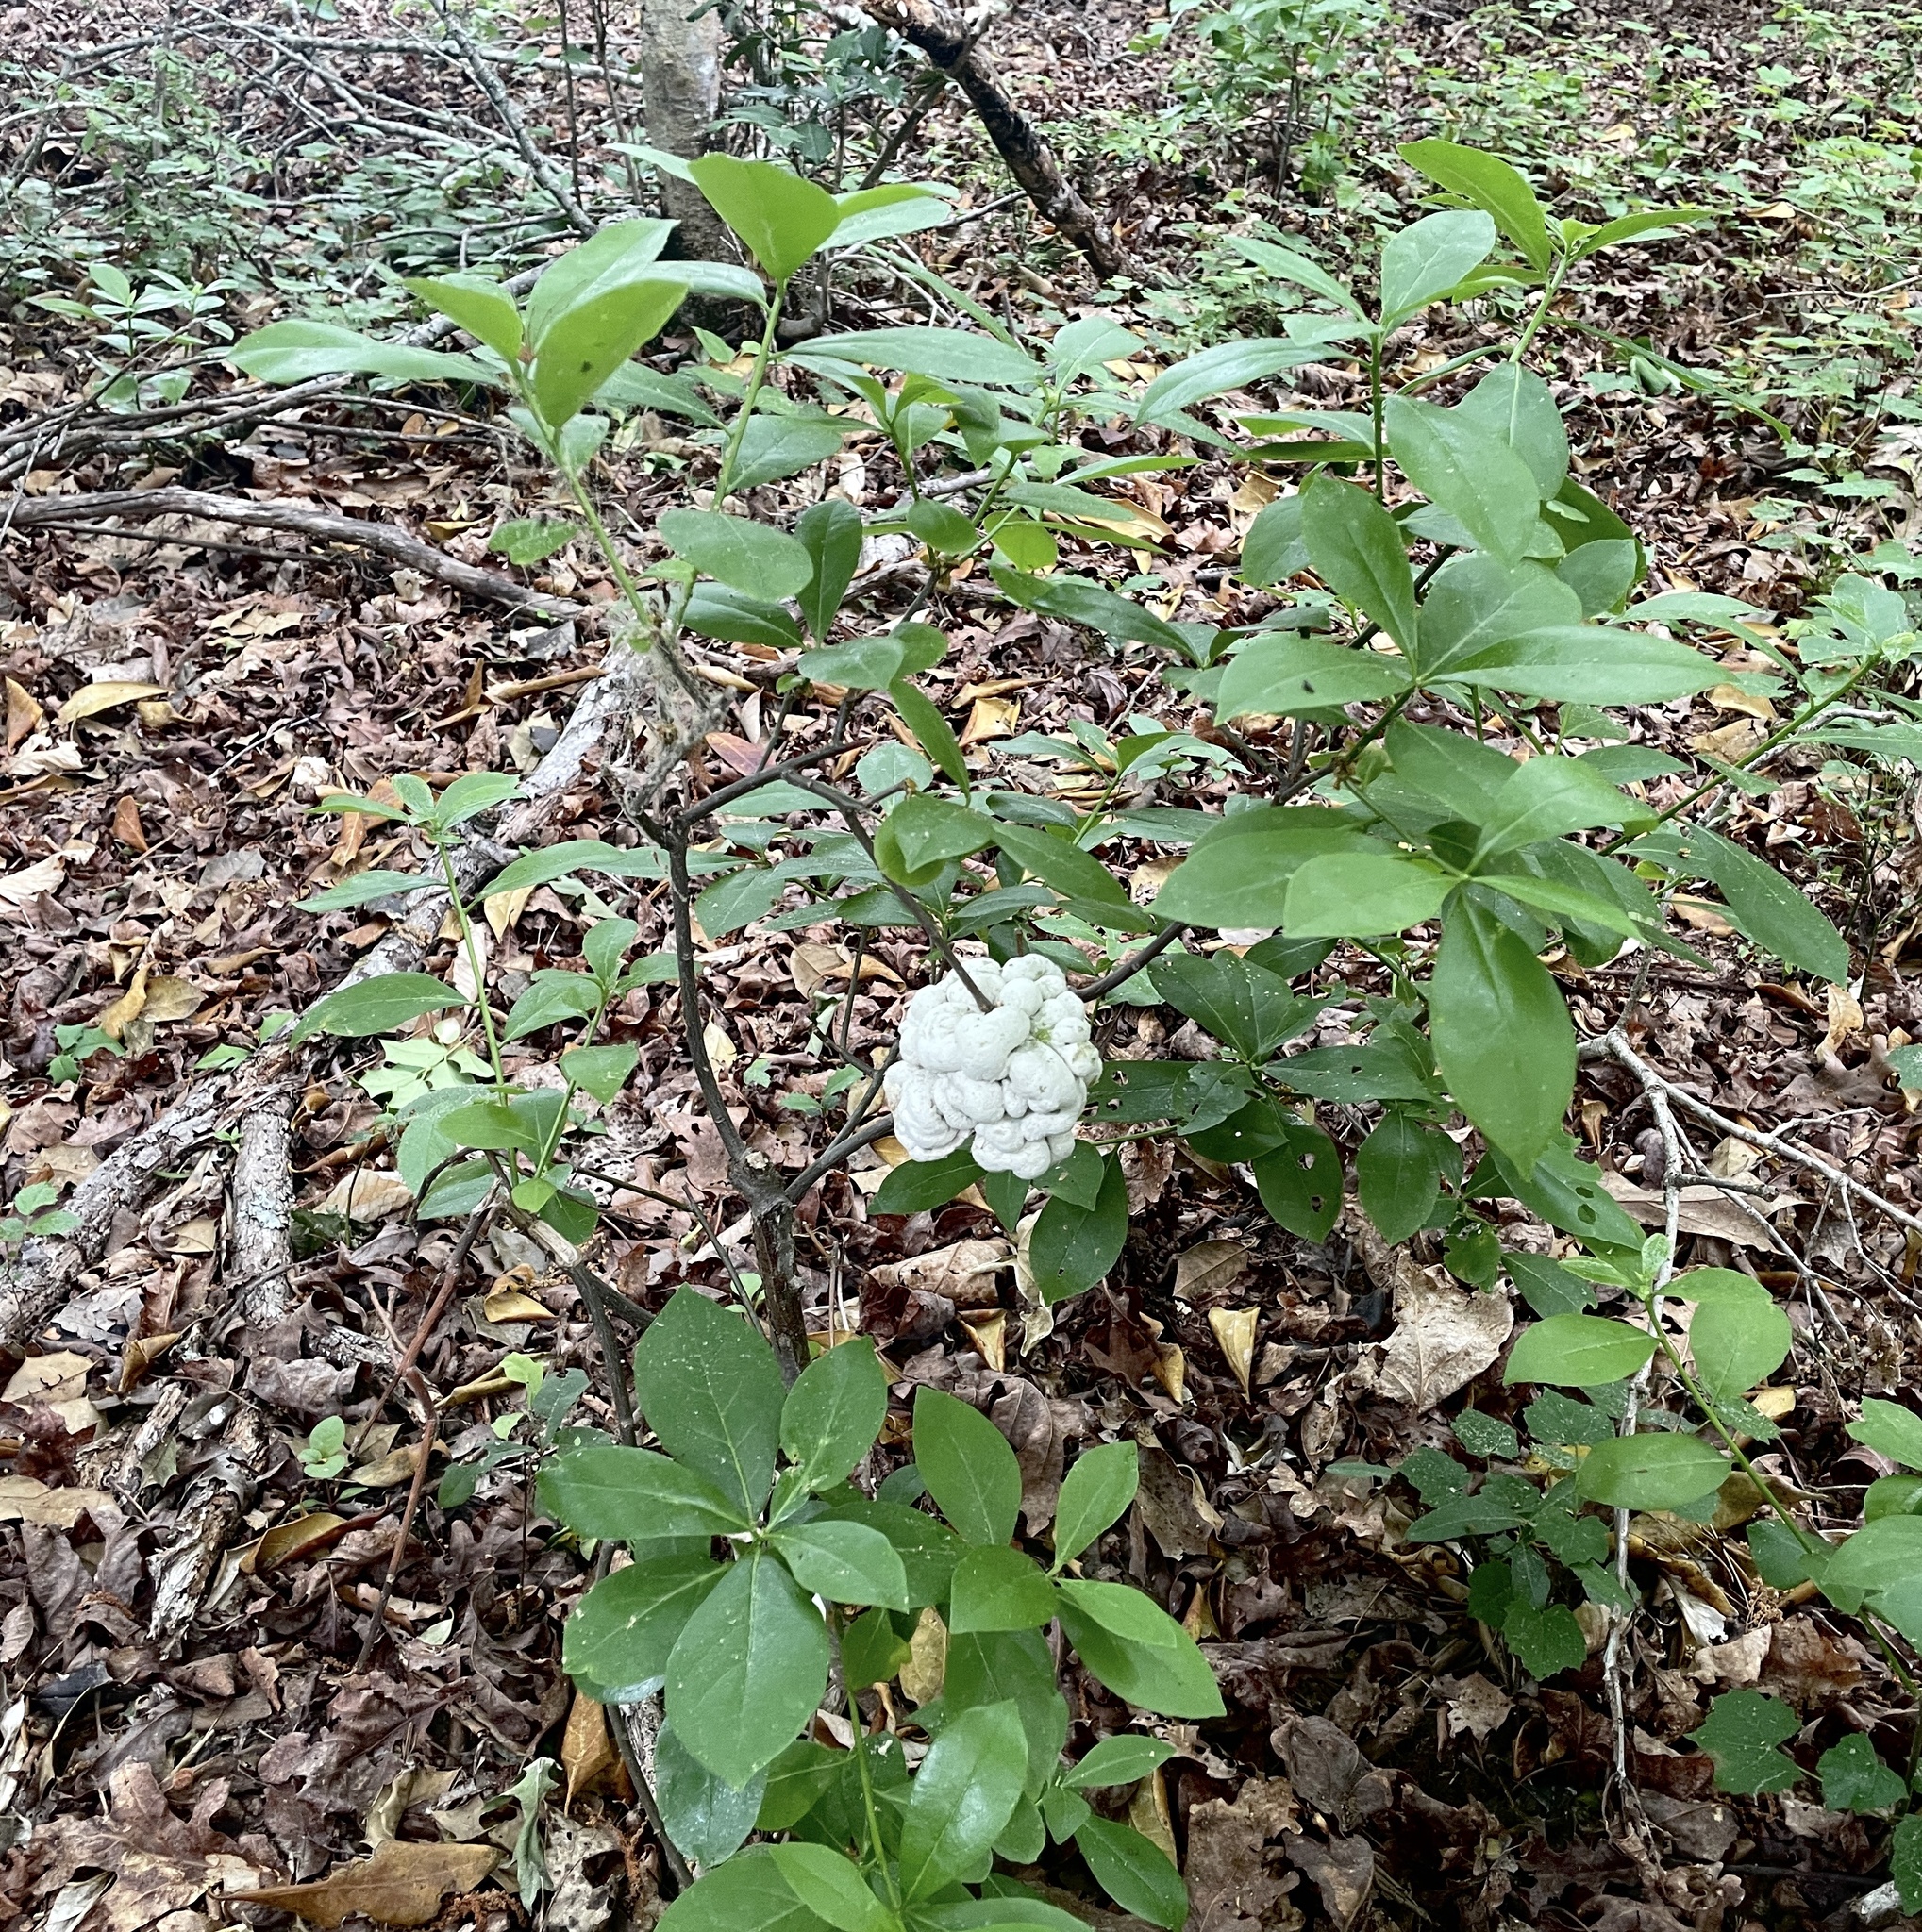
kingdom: Fungi
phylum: Basidiomycota
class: Exobasidiomycetes
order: Exobasidiales
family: Exobasidiaceae
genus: Exobasidium
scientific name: Exobasidium symploci
